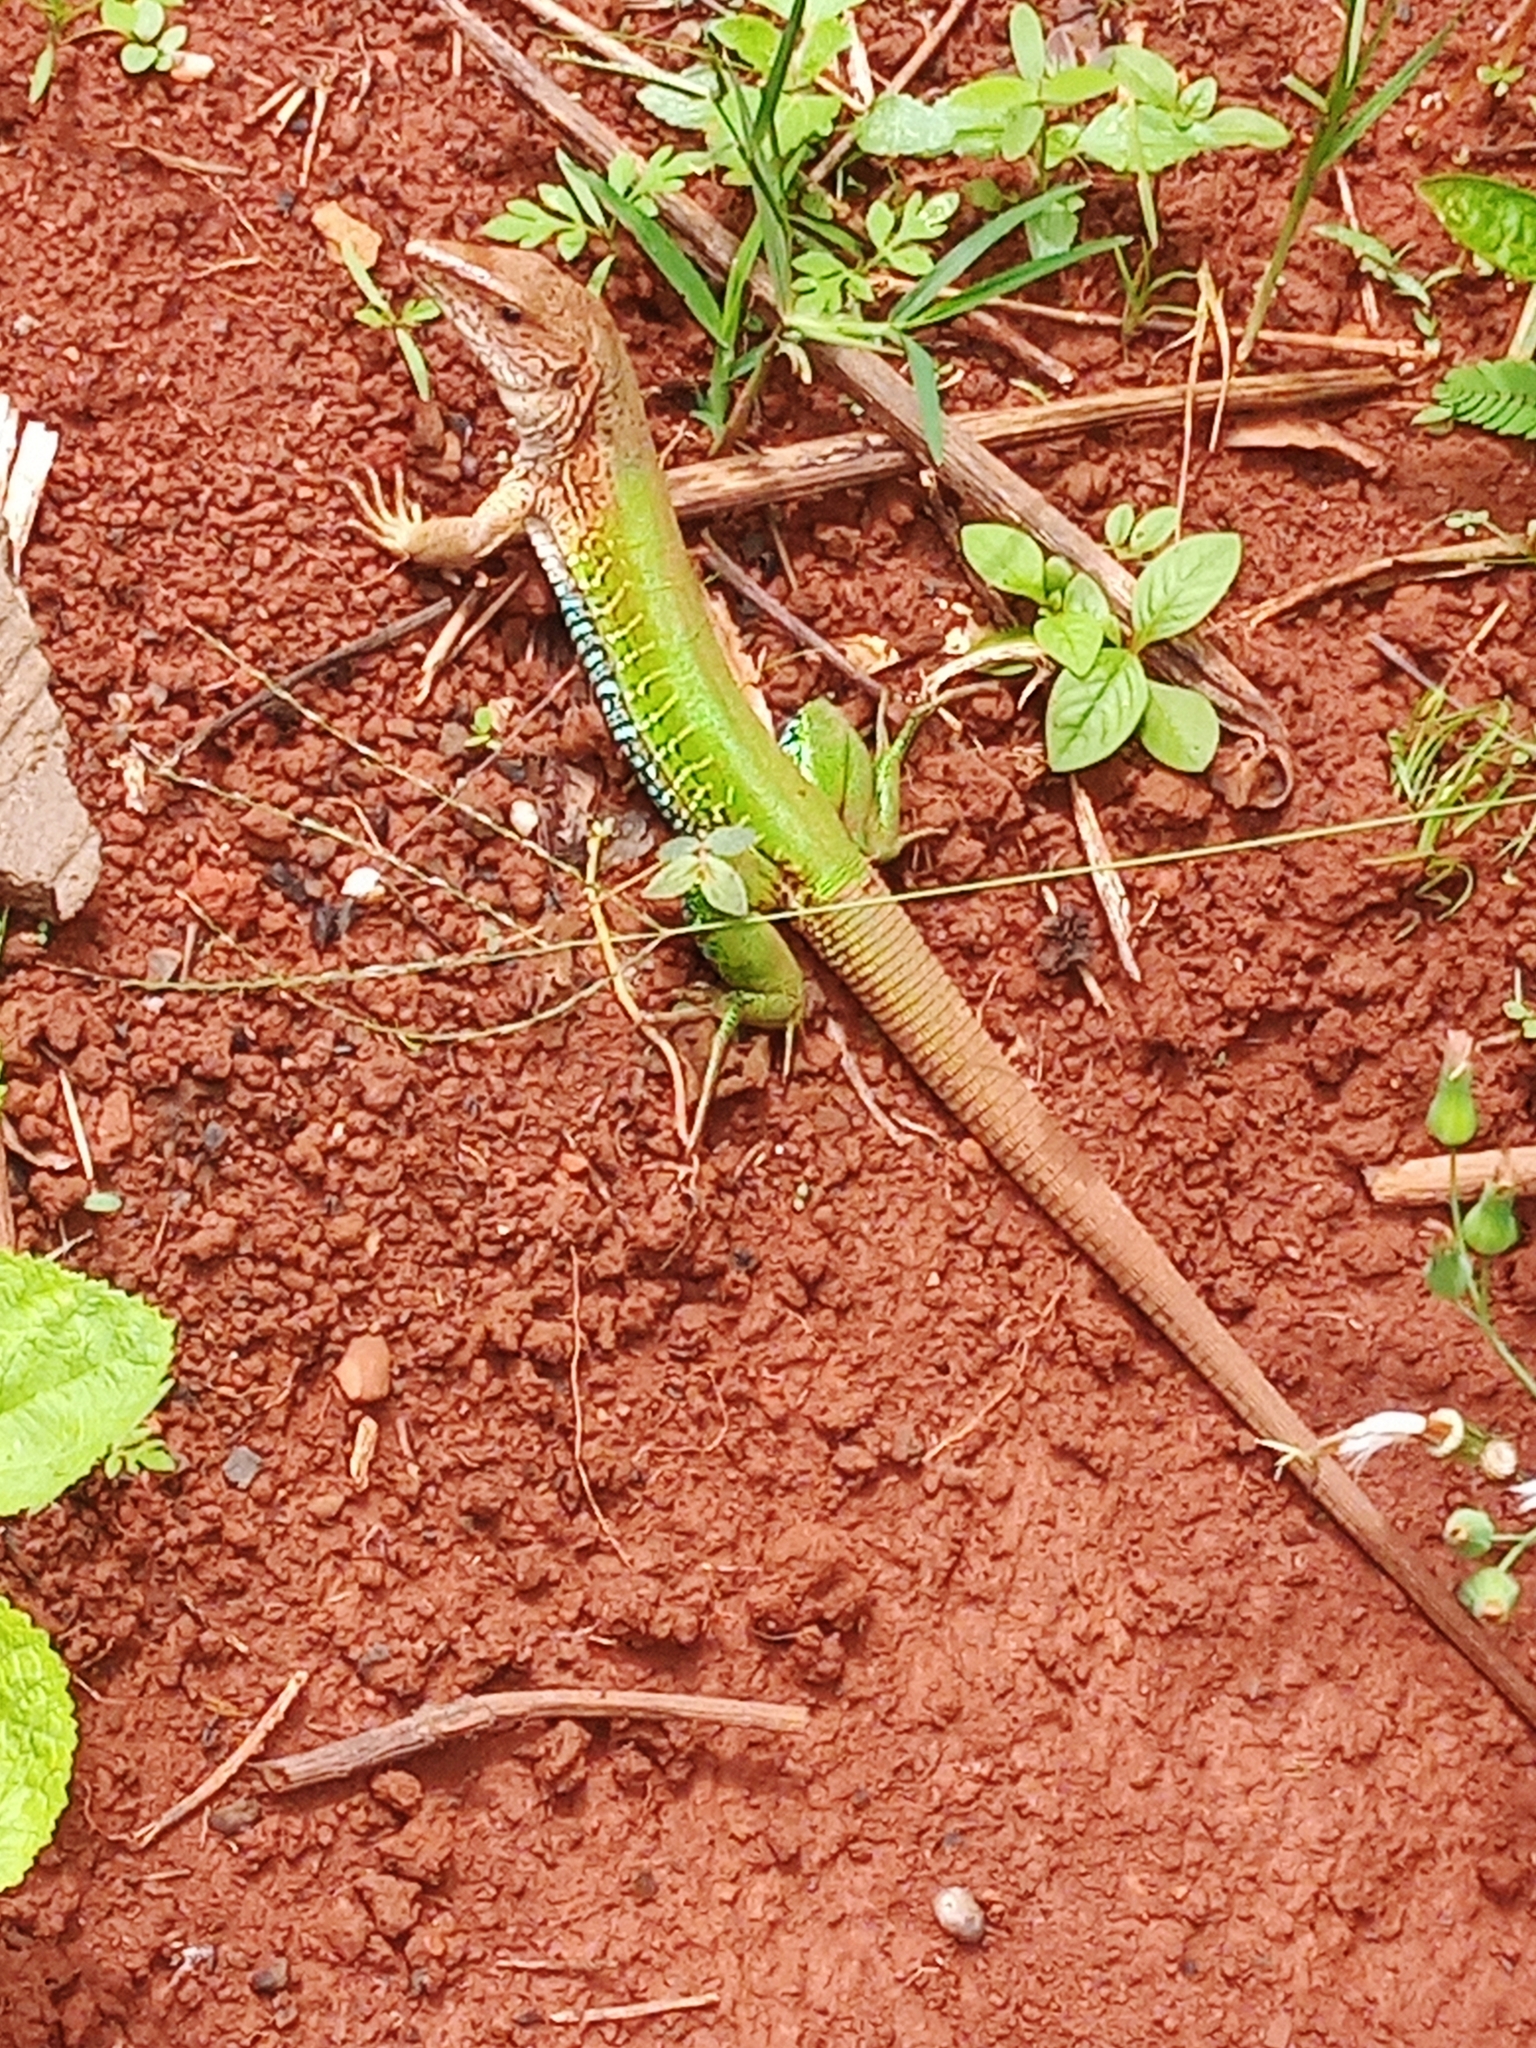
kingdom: Animalia
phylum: Chordata
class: Squamata
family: Teiidae
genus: Ameiva
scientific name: Ameiva ameiva
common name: Giant ameiva
